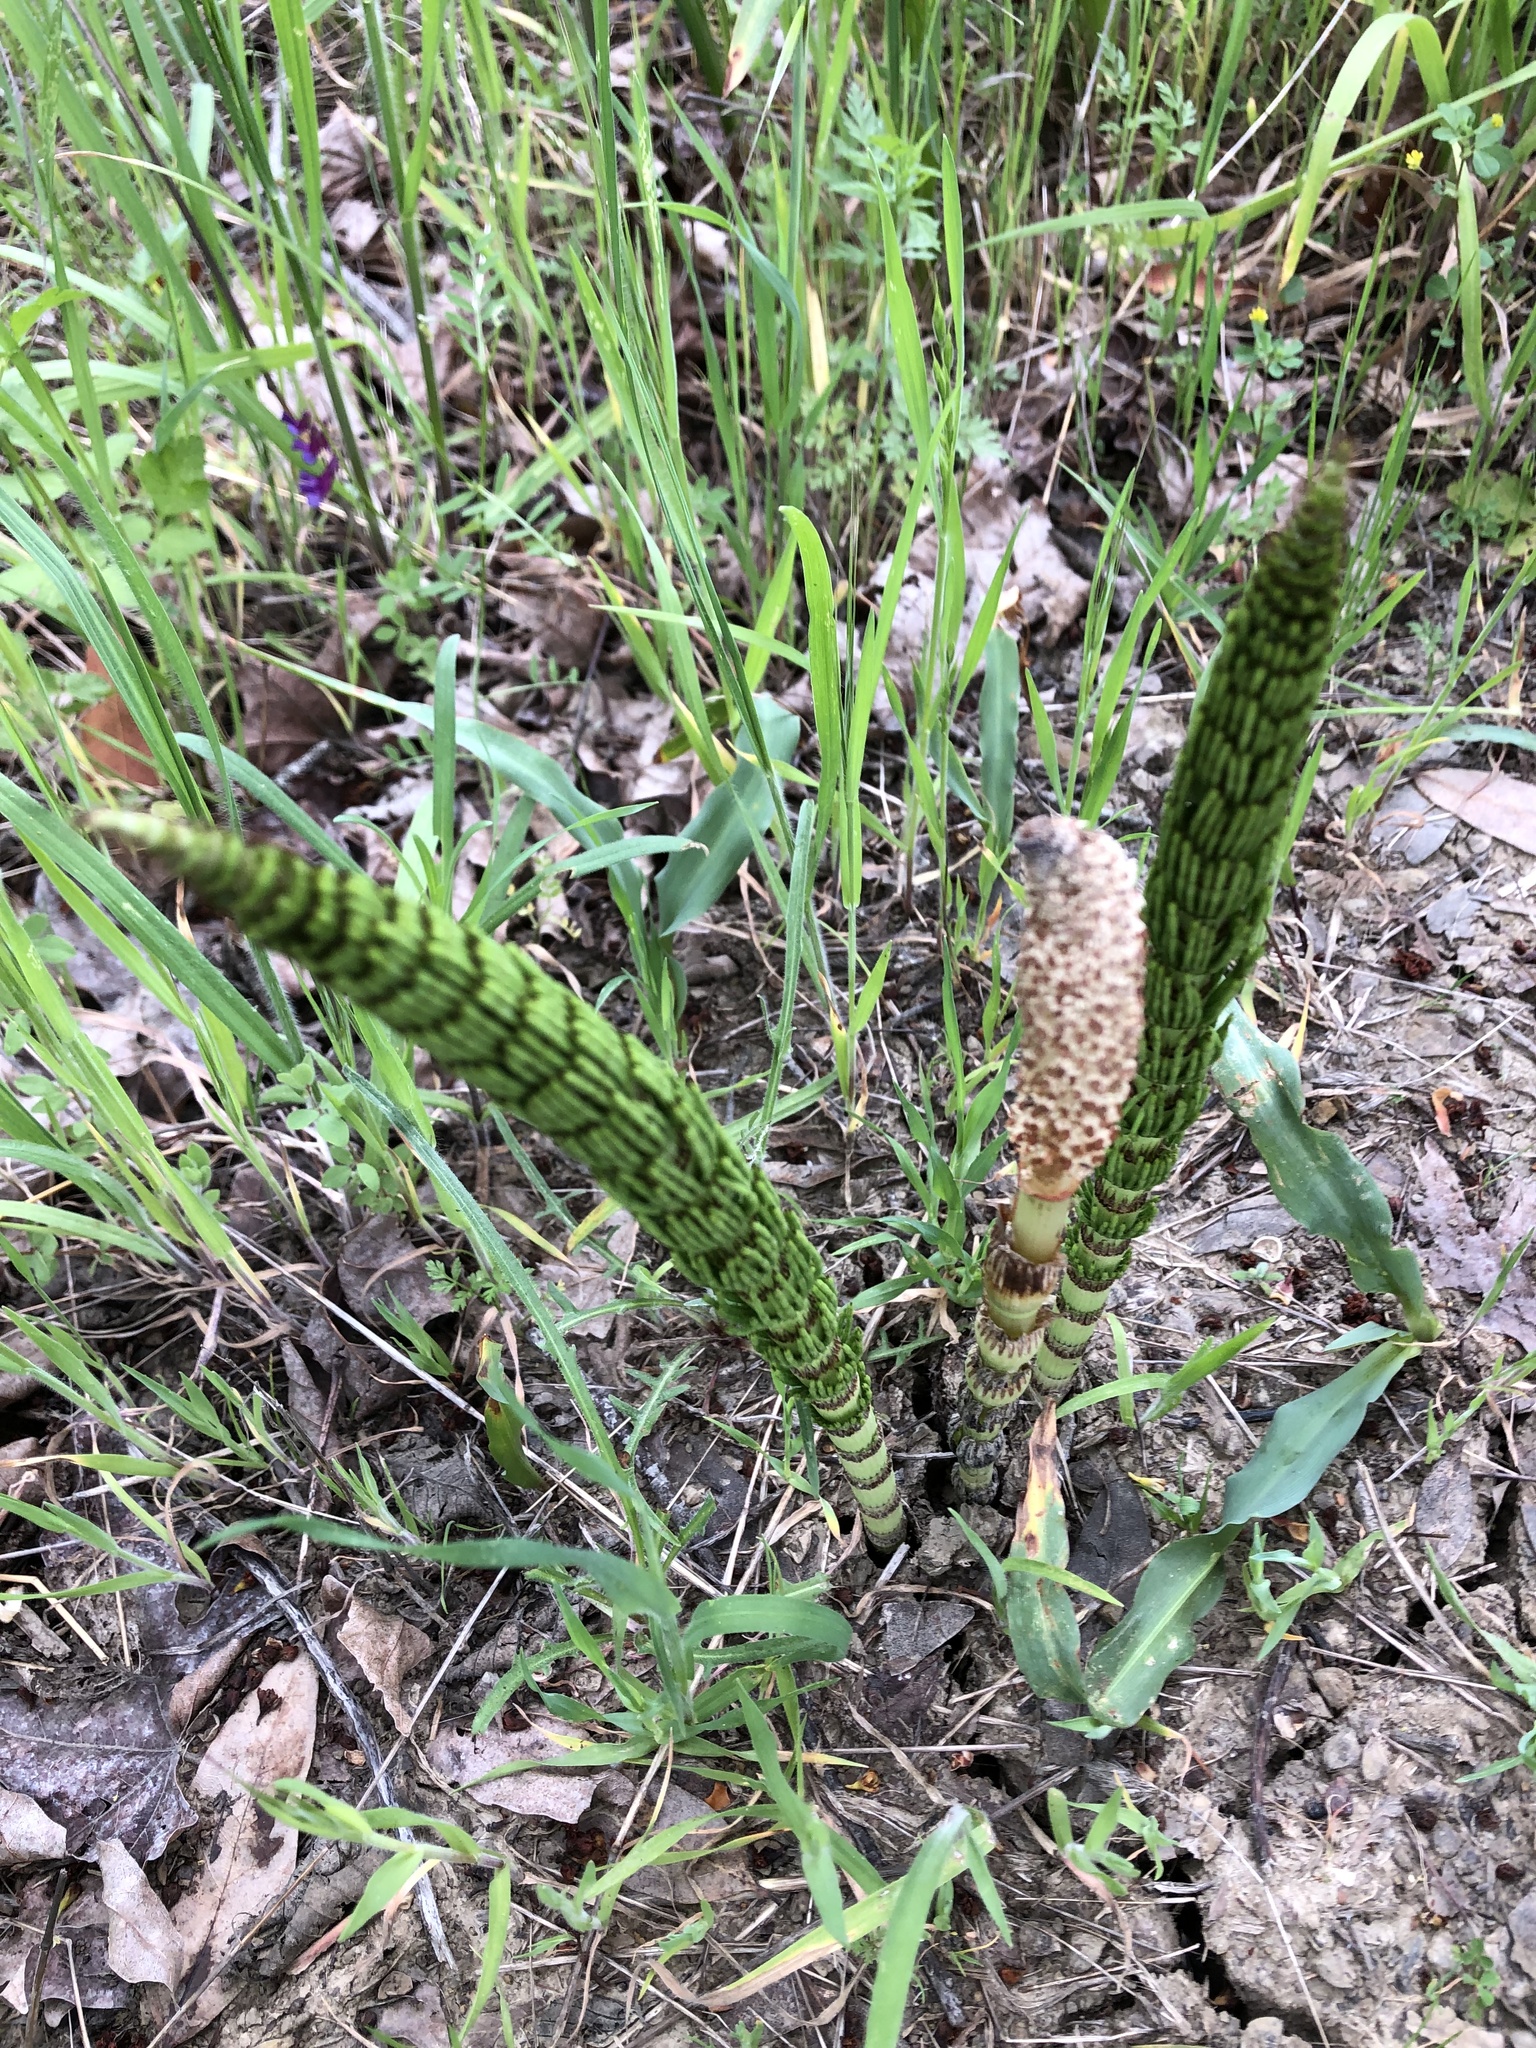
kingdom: Plantae
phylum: Tracheophyta
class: Polypodiopsida
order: Equisetales
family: Equisetaceae
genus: Equisetum
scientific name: Equisetum telmateia
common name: Great horsetail
